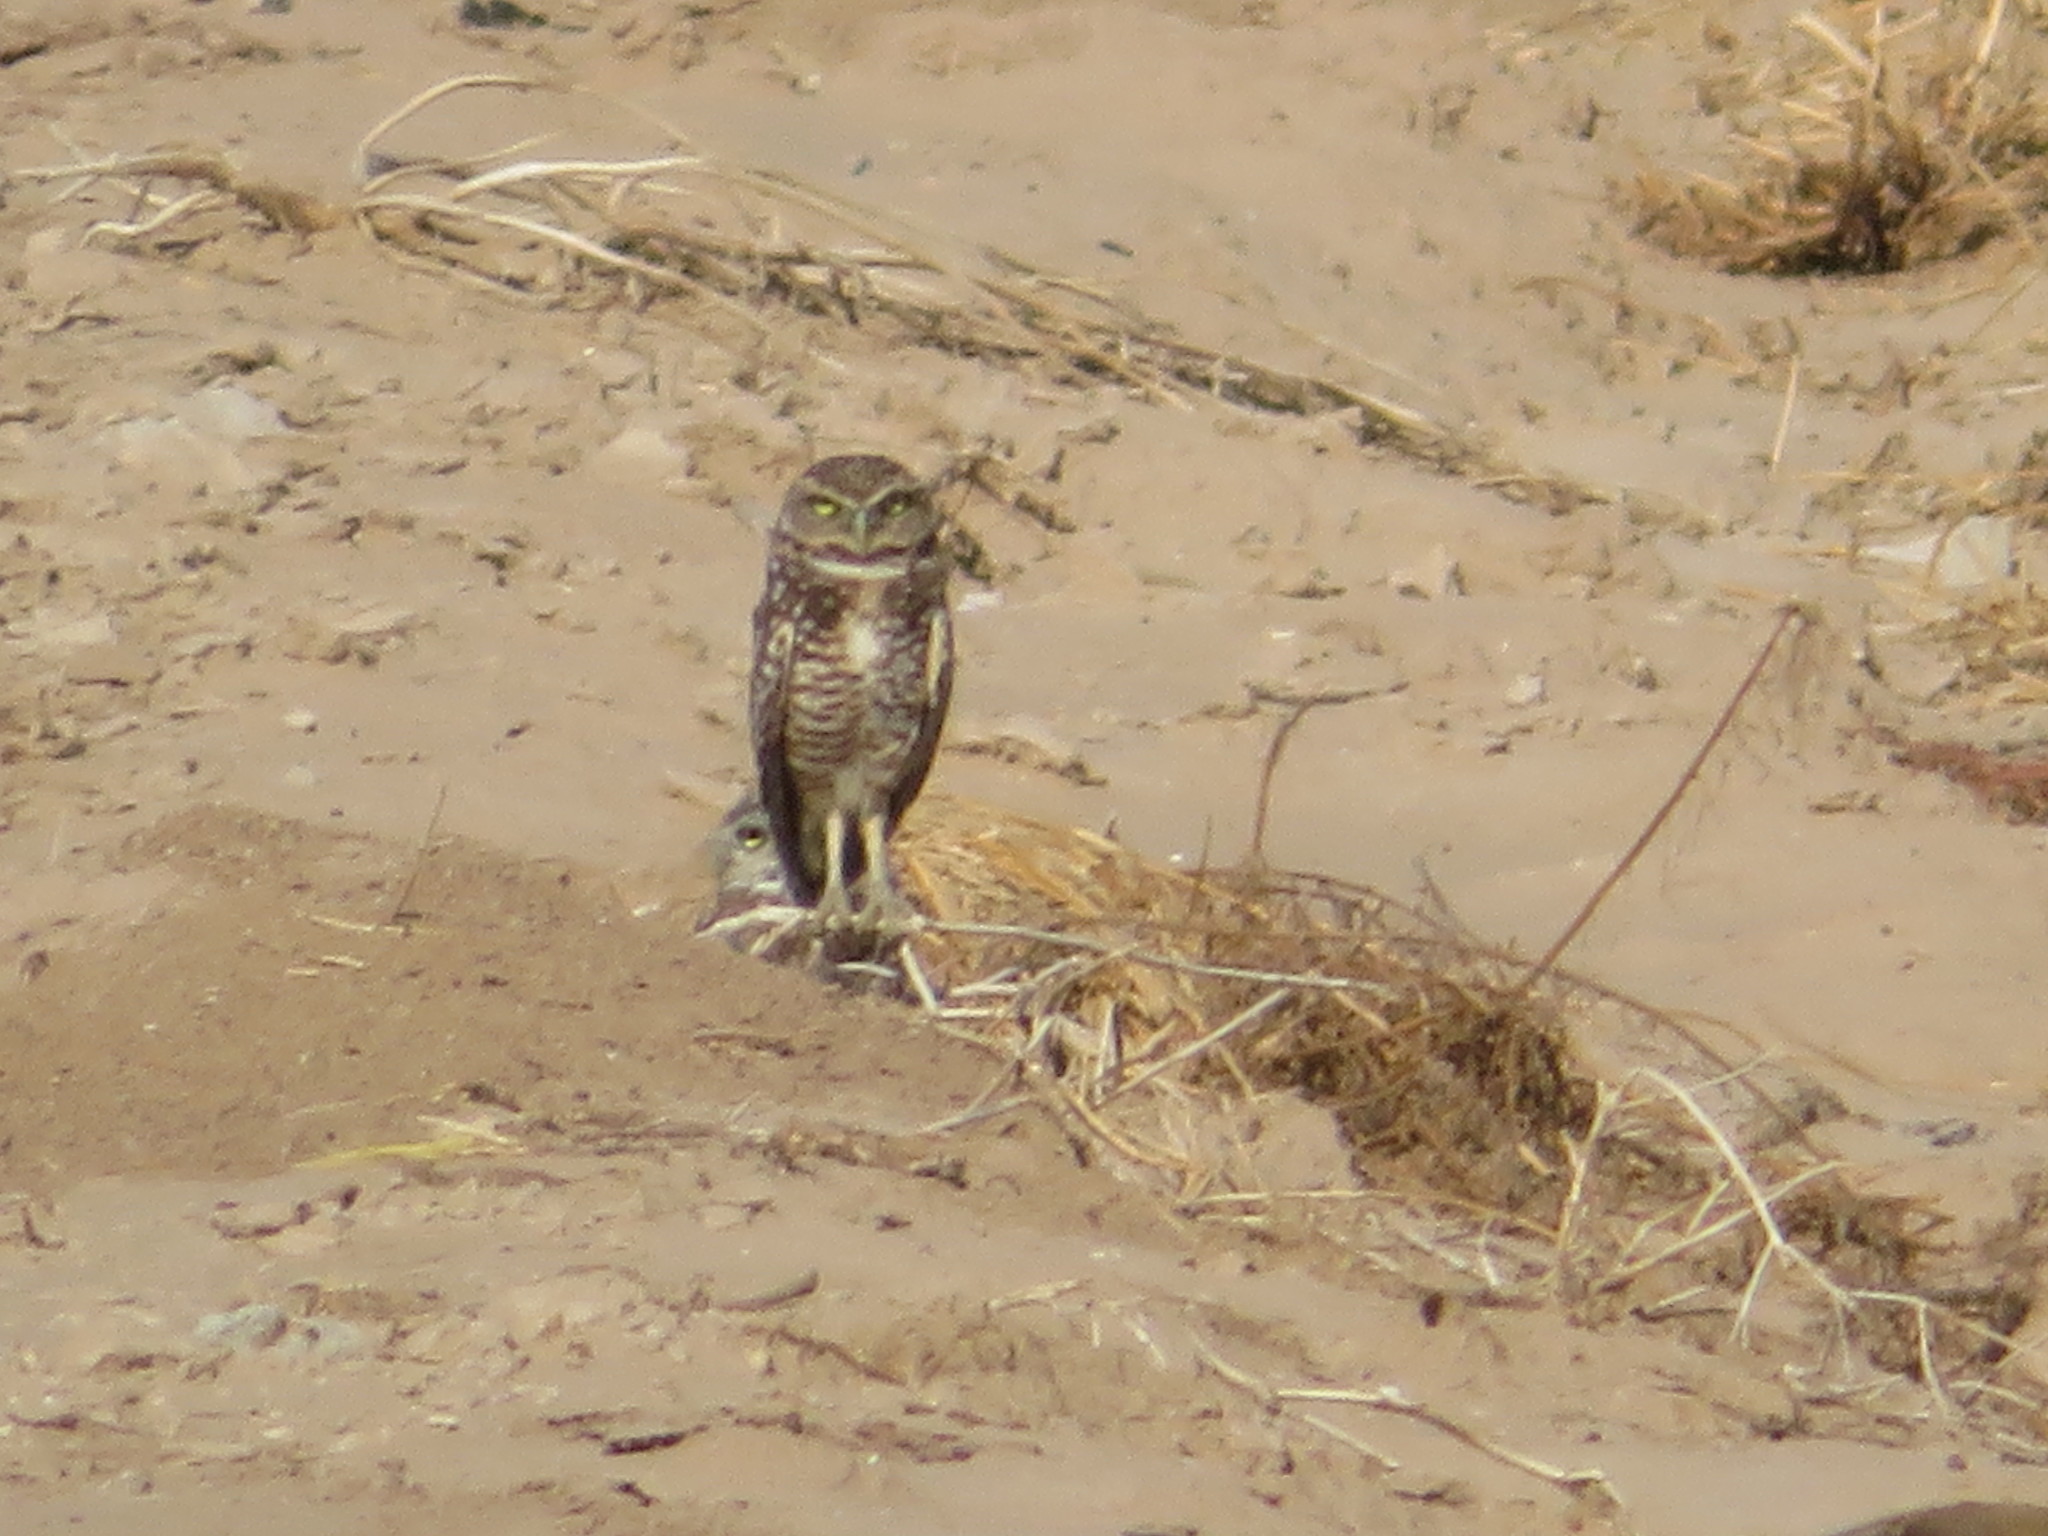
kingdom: Animalia
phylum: Chordata
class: Aves
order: Strigiformes
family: Strigidae
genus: Athene
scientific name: Athene cunicularia
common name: Burrowing owl
